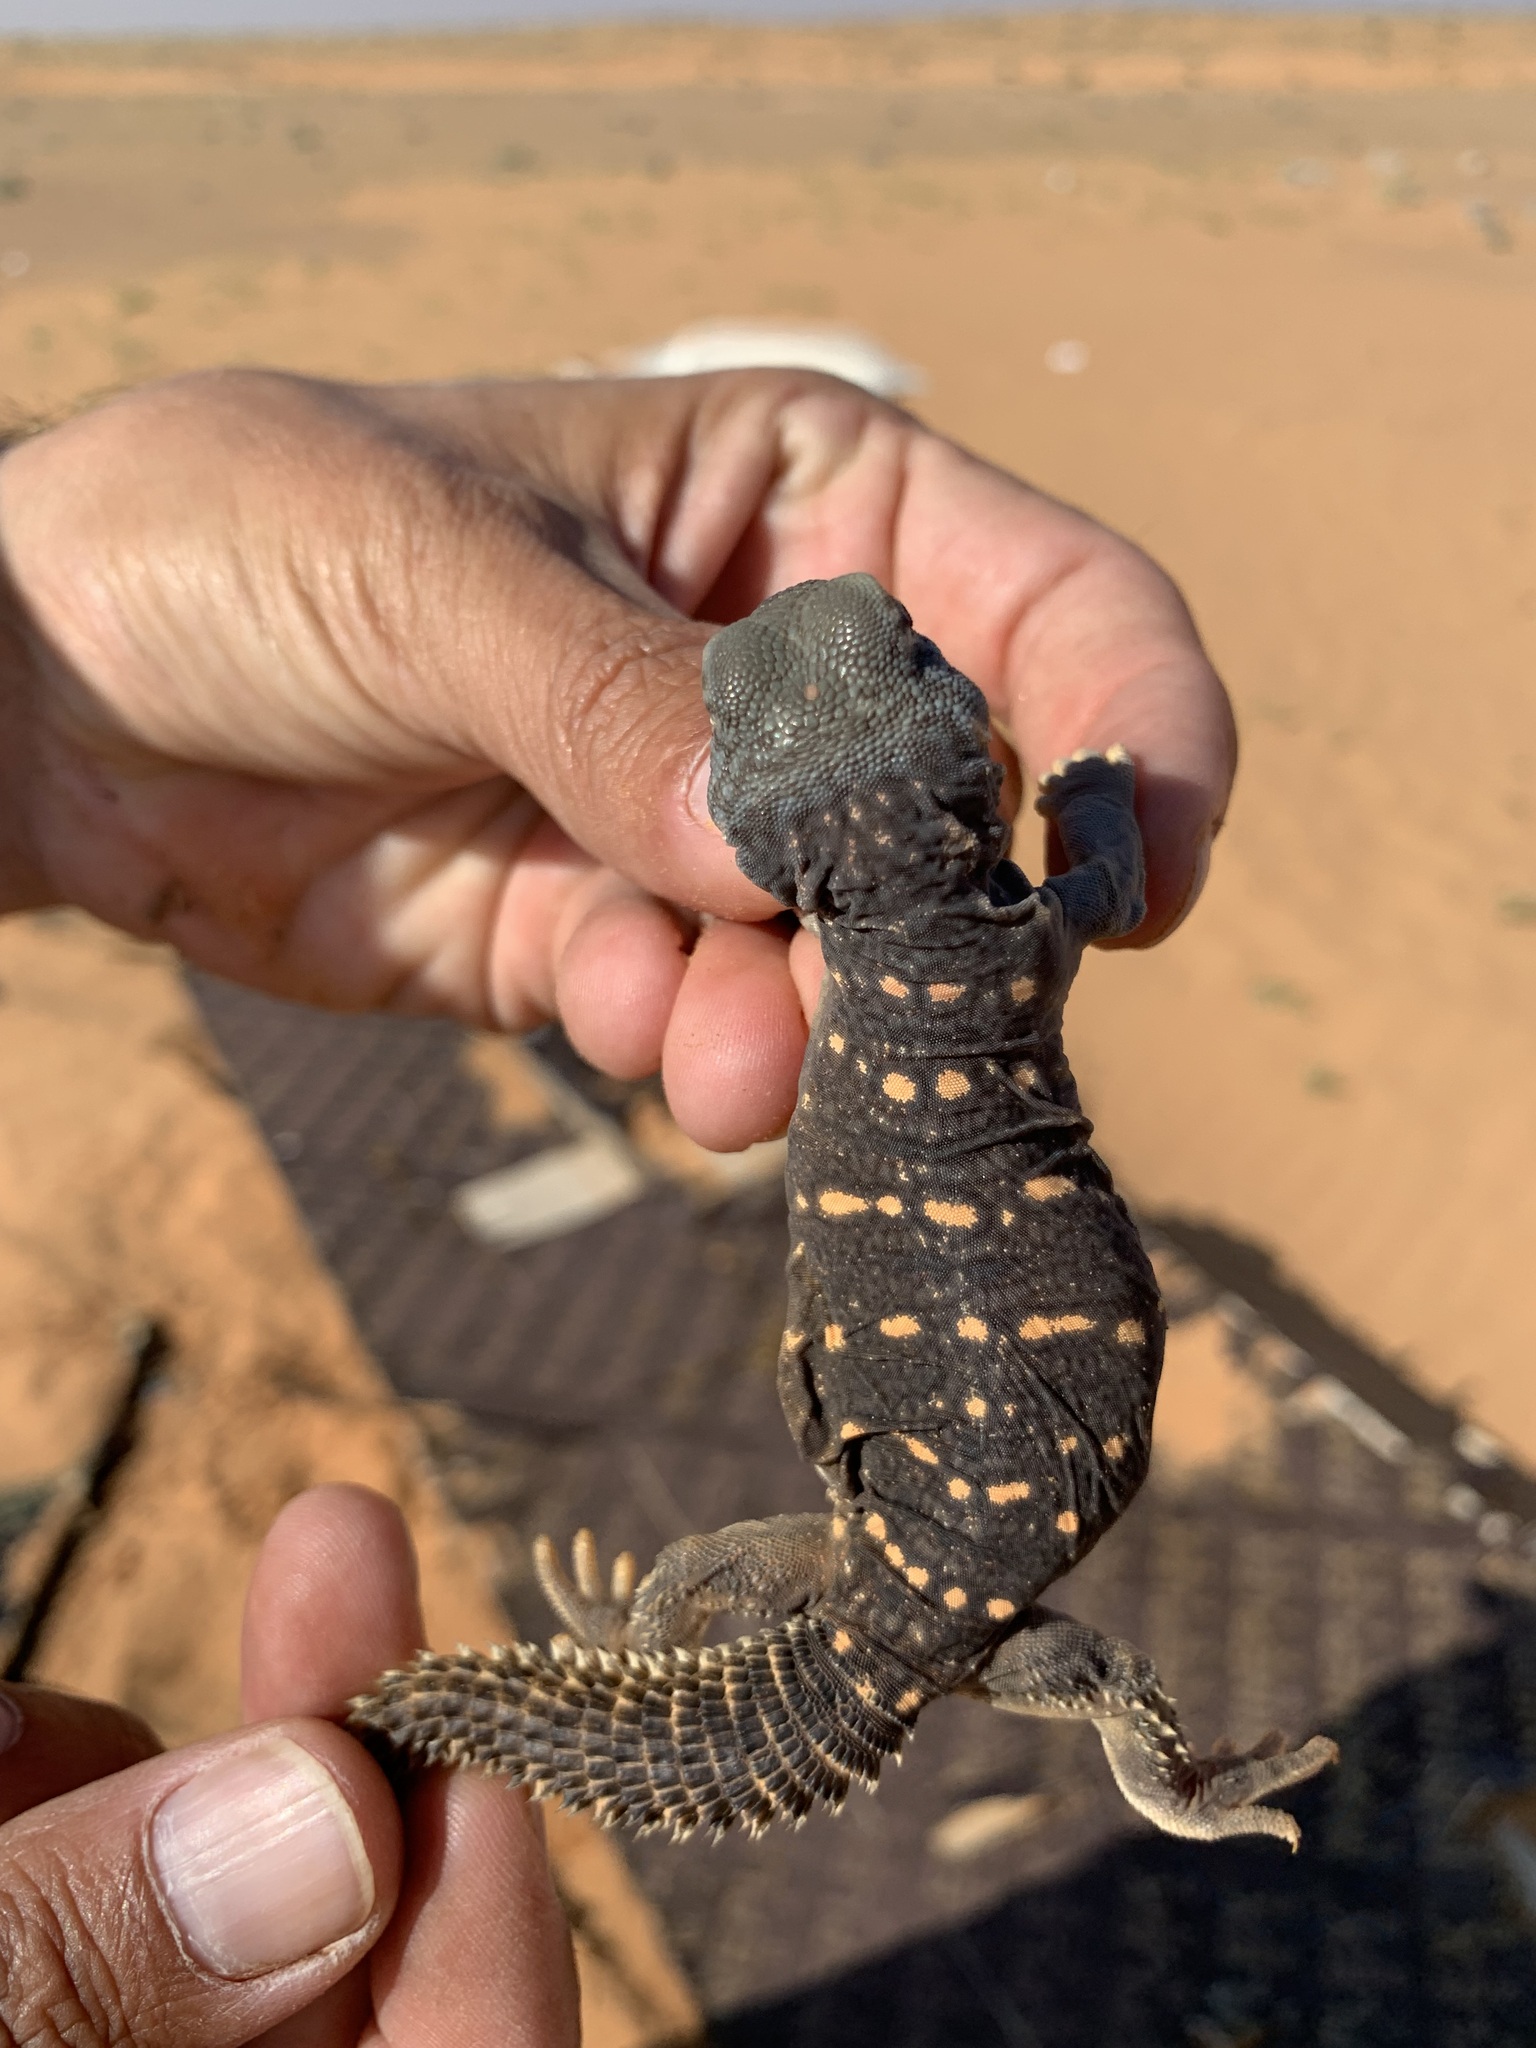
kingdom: Animalia
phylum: Chordata
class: Squamata
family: Agamidae
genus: Uromastyx
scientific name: Uromastyx aegyptia
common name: Egyptian mastigure
